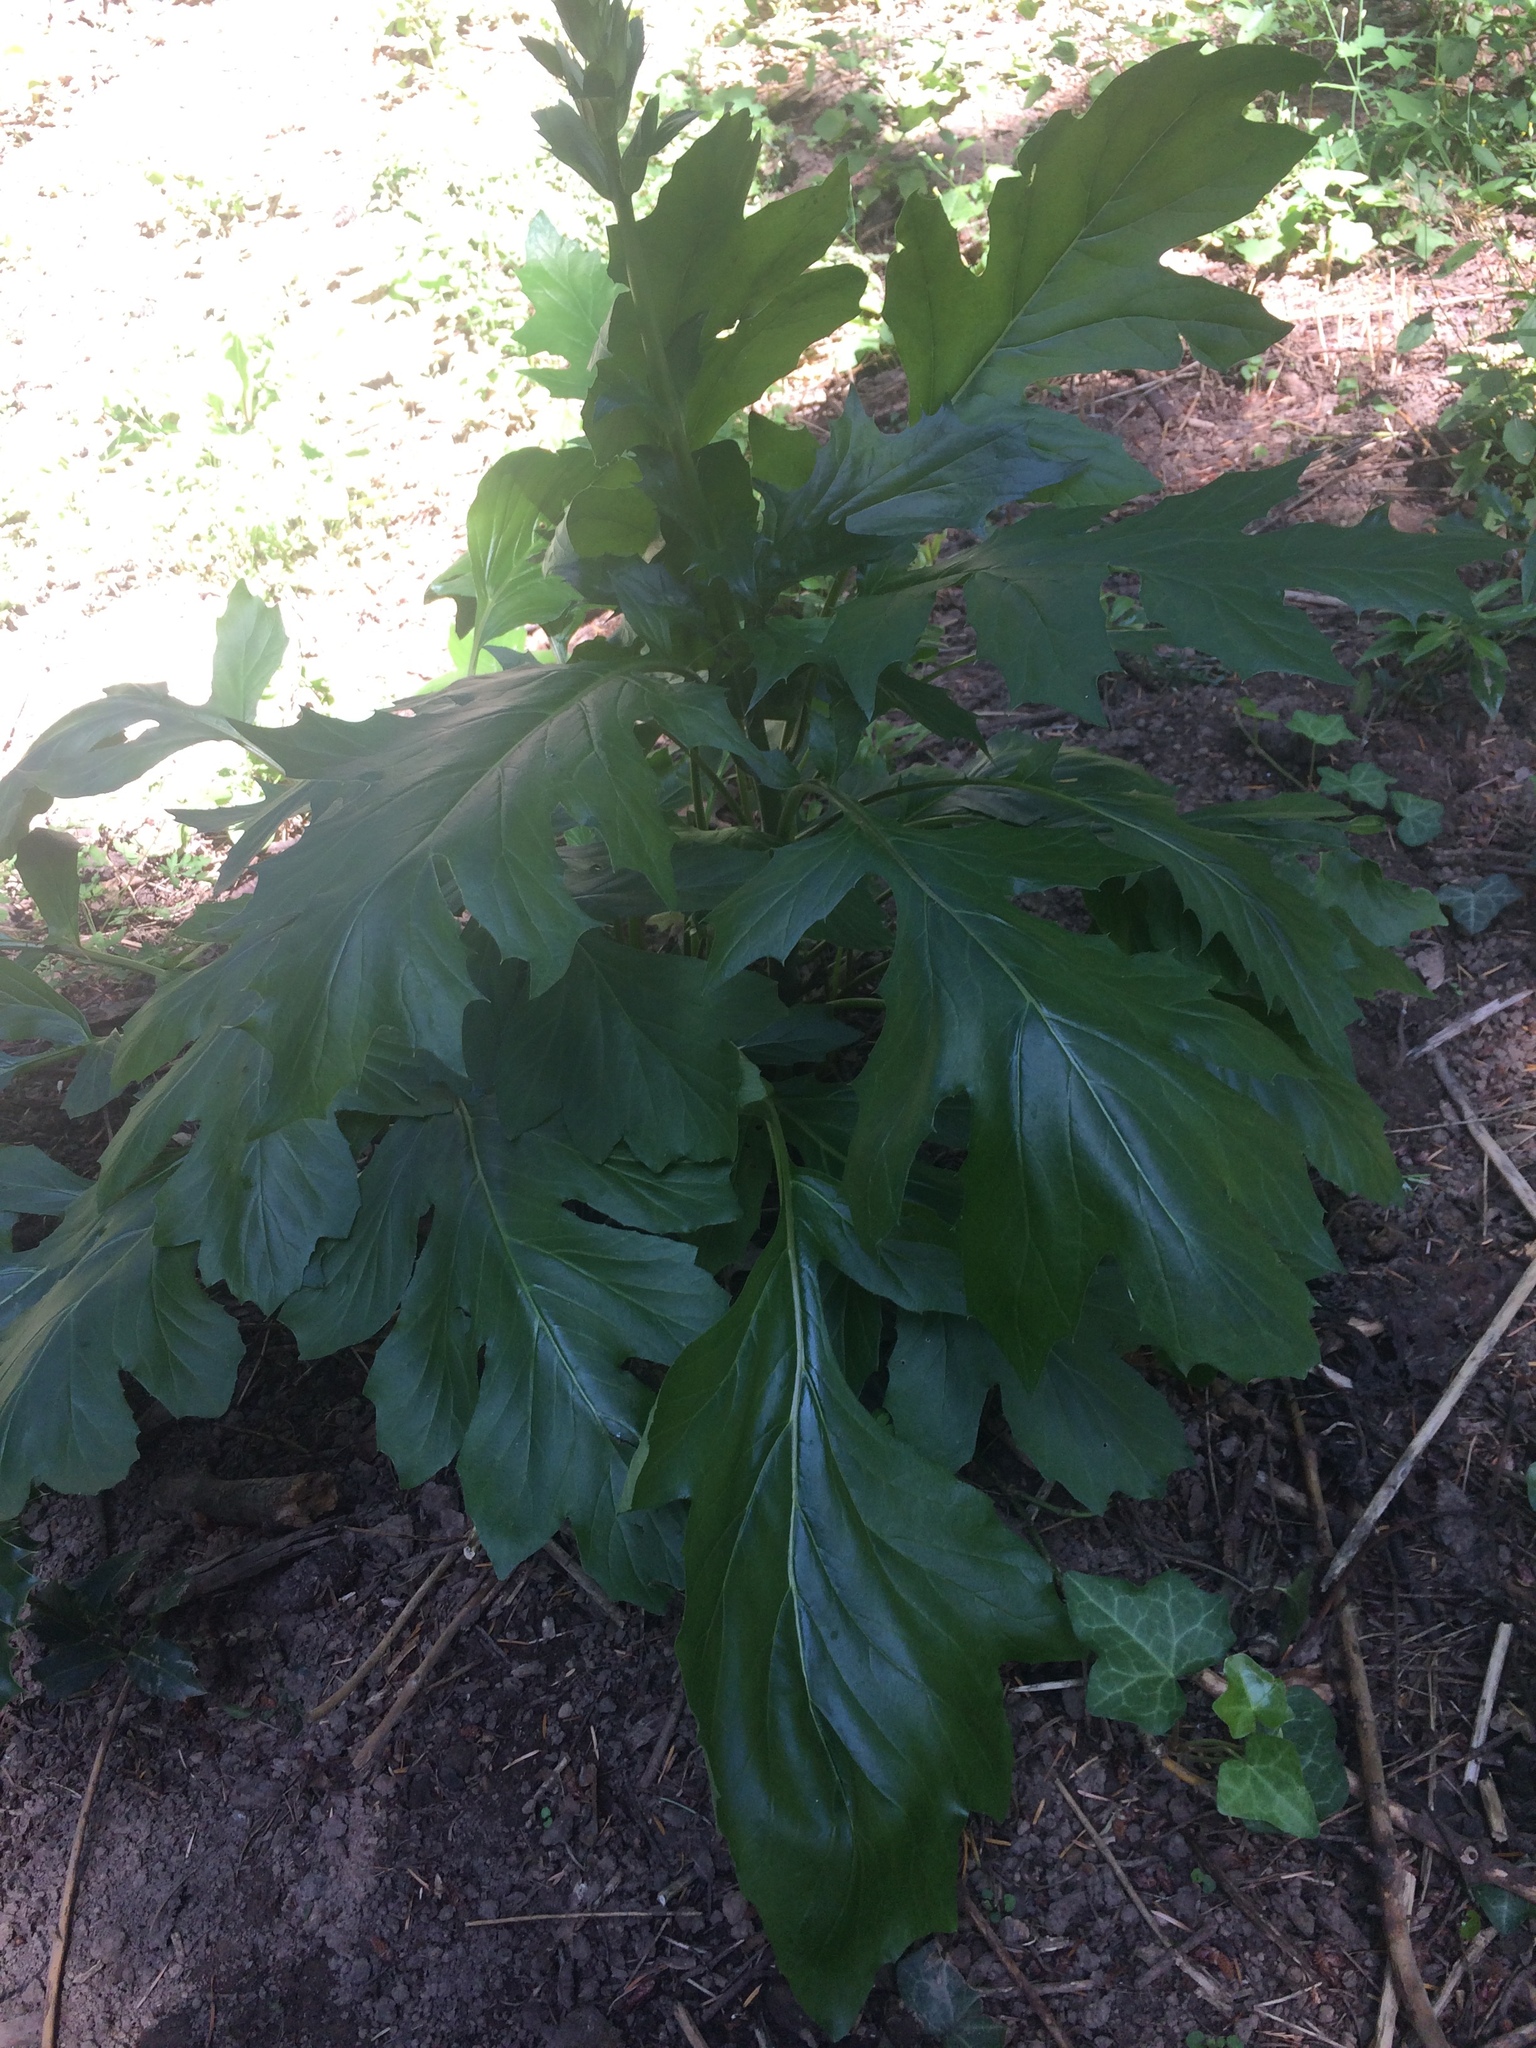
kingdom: Plantae
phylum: Tracheophyta
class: Magnoliopsida
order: Lamiales
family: Acanthaceae
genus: Acanthus
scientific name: Acanthus mollis
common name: Bear's-breech
